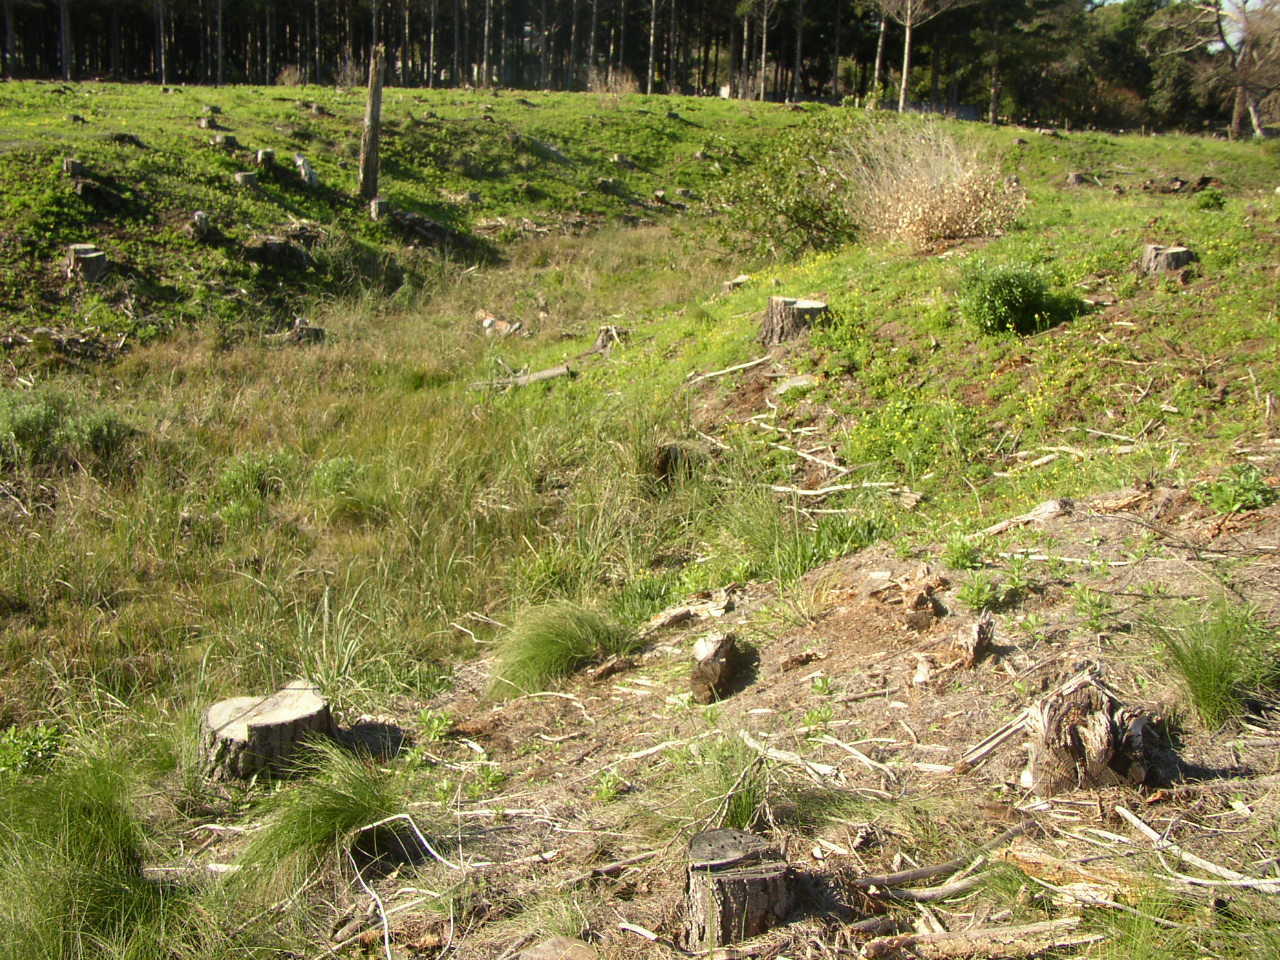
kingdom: Plantae
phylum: Tracheophyta
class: Liliopsida
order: Poales
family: Poaceae
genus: Cenchrus
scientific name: Cenchrus caudatus
